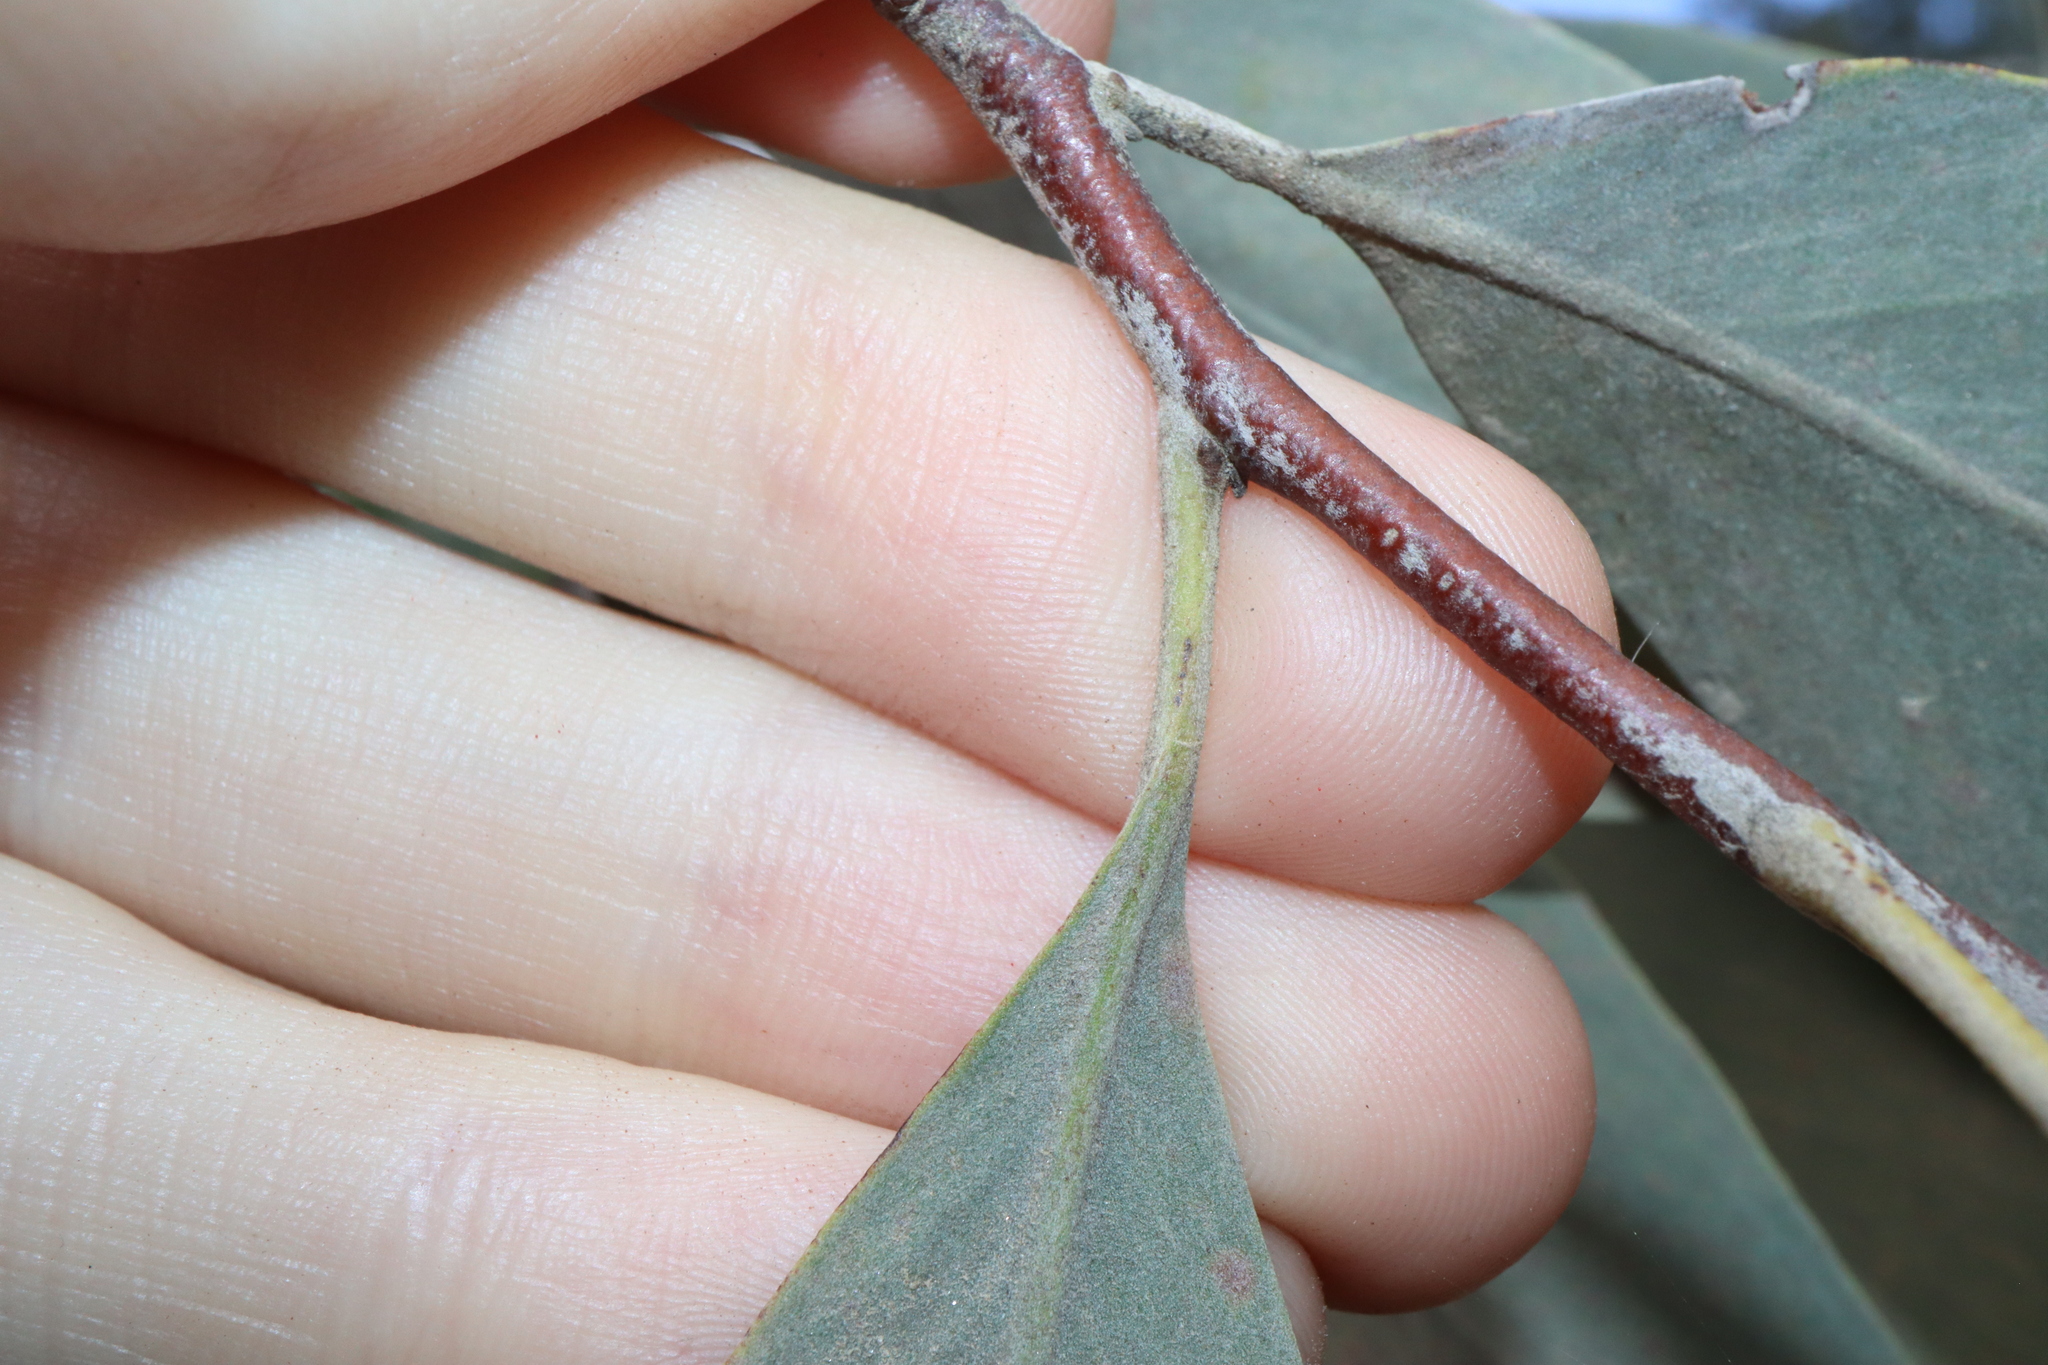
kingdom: Plantae
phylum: Tracheophyta
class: Magnoliopsida
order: Proteales
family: Proteaceae
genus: Grevillea
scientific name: Grevillea glauca
